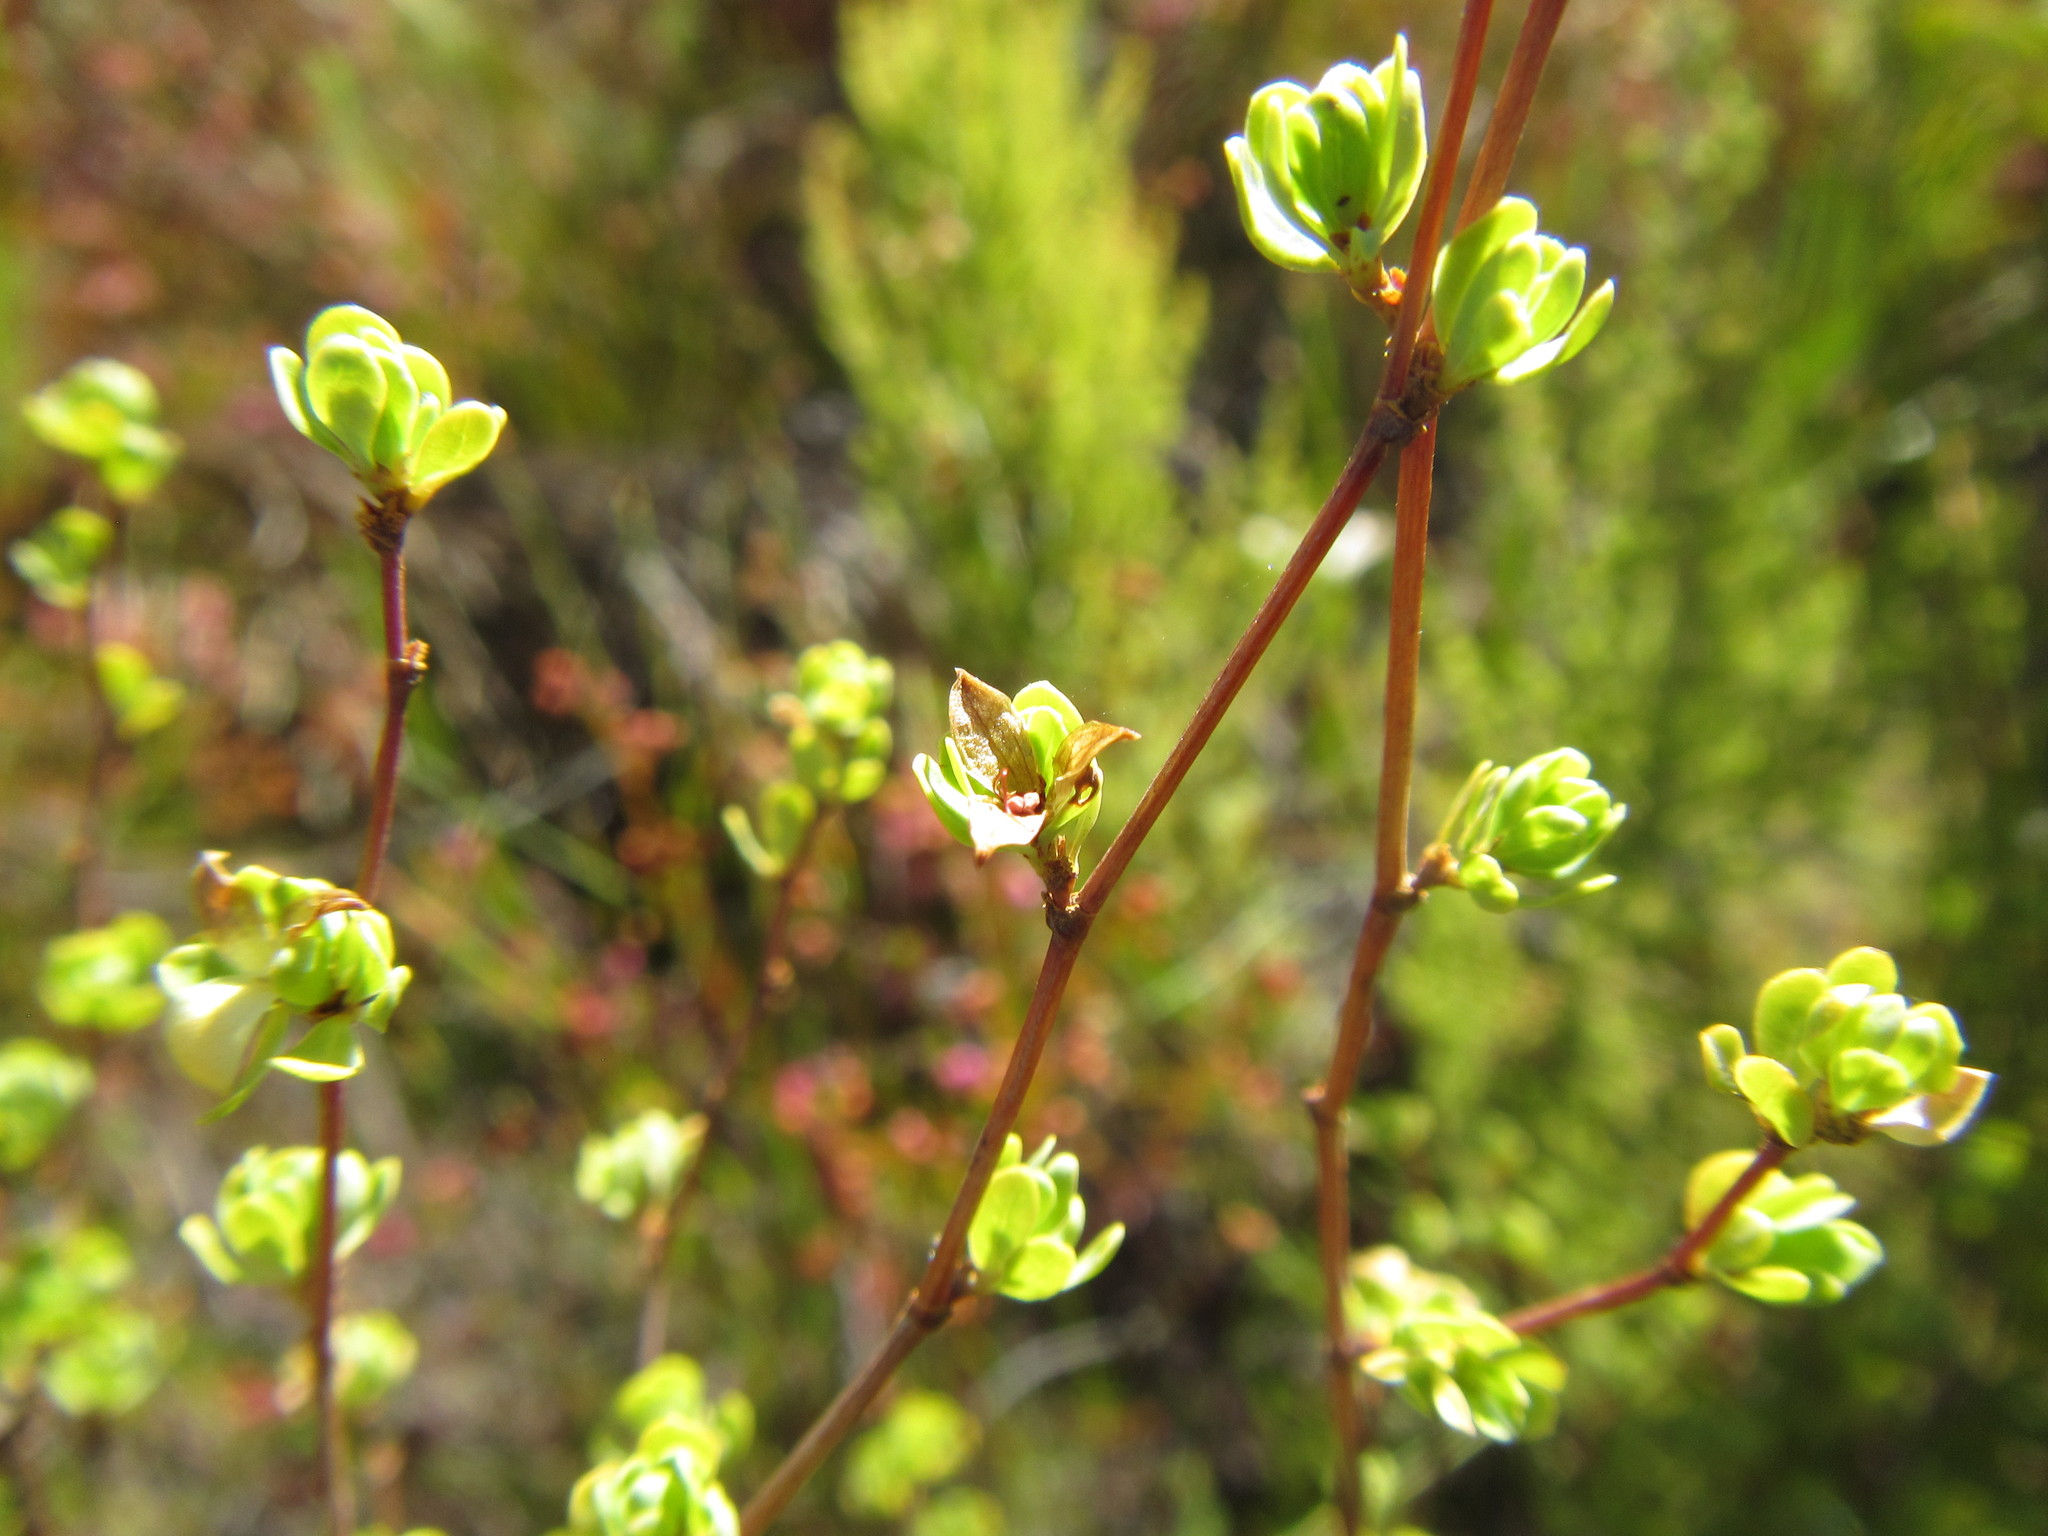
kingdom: Plantae
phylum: Tracheophyta
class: Magnoliopsida
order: Rosales
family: Rosaceae
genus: Cliffortia
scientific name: Cliffortia obovata
